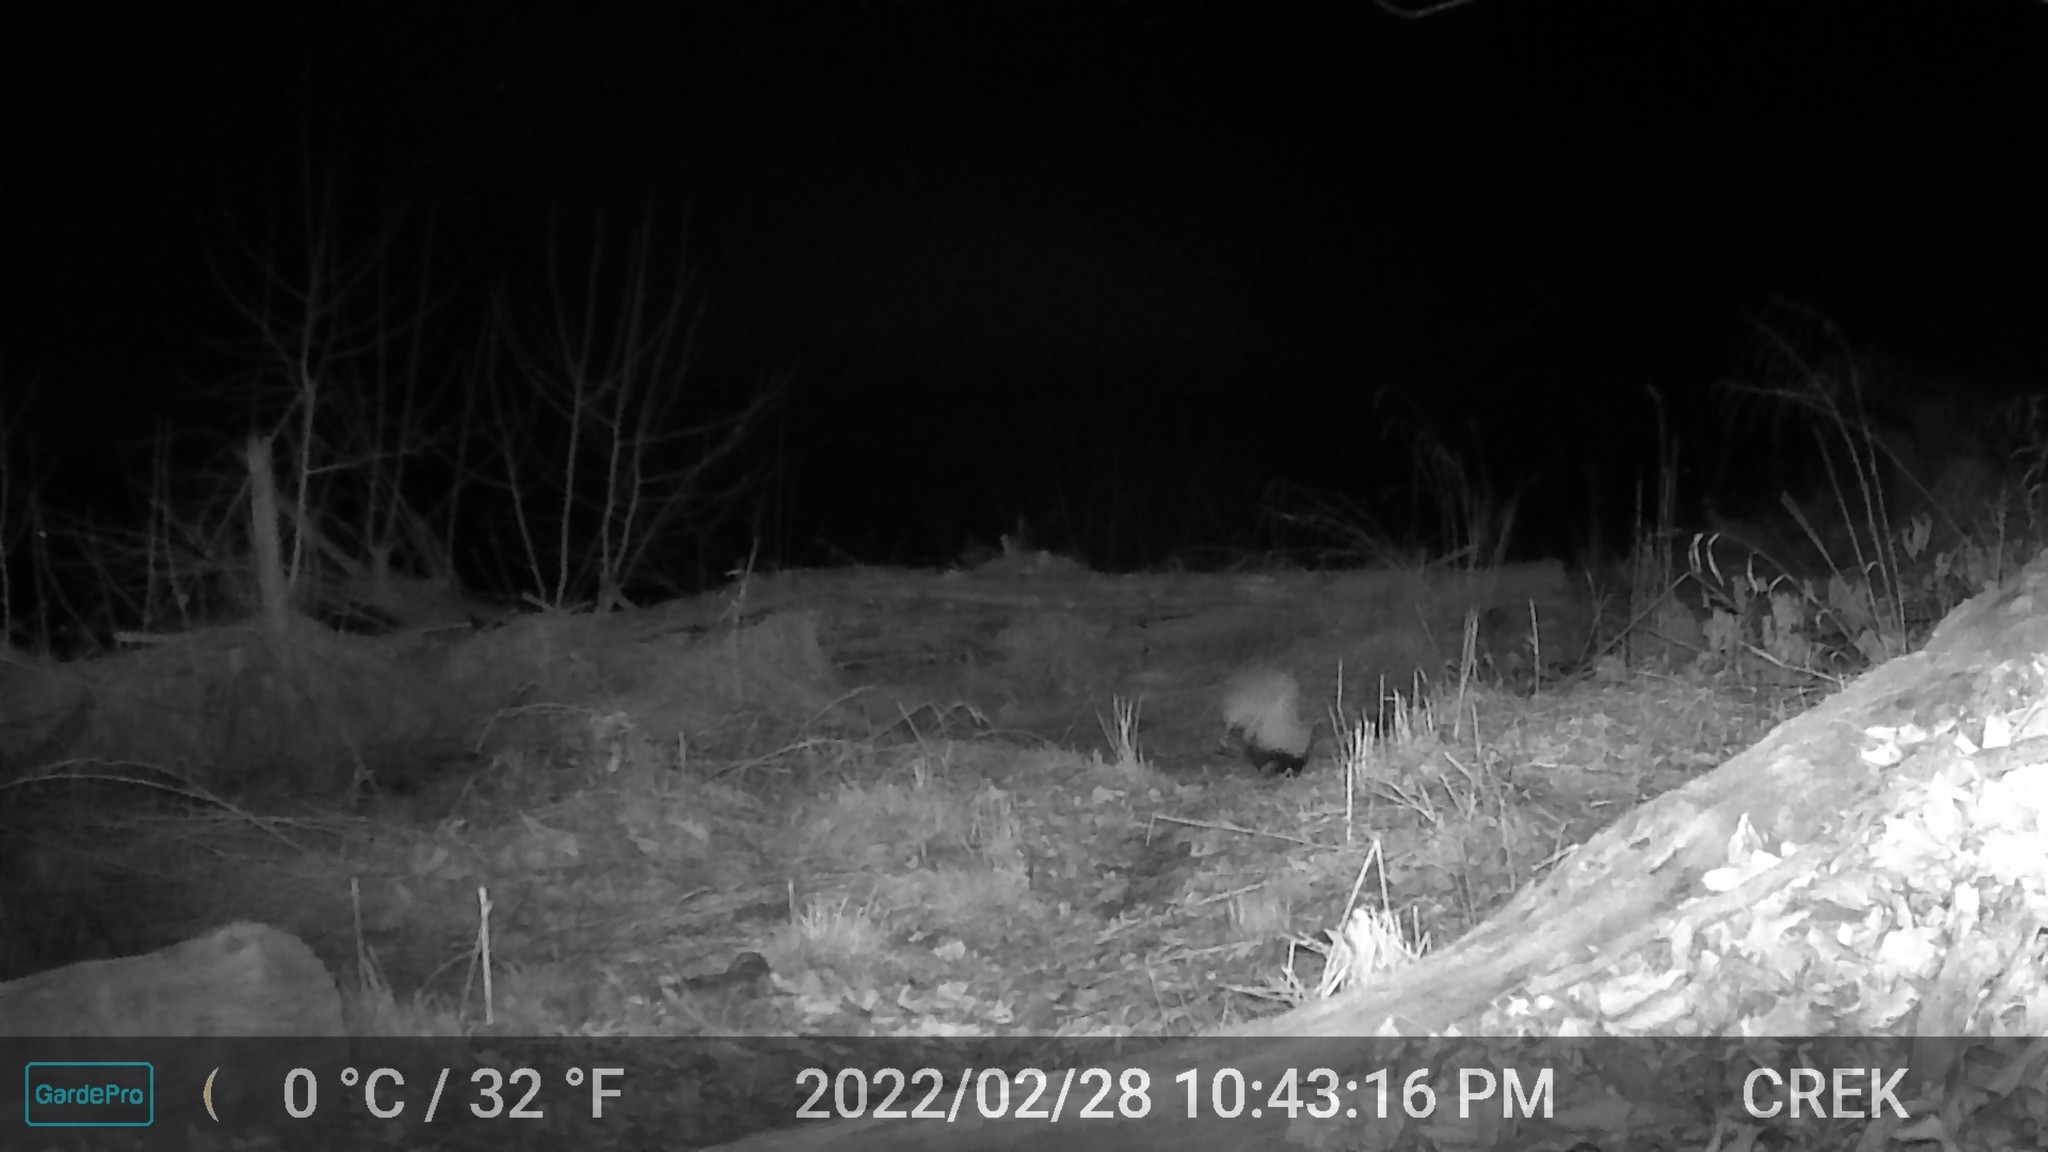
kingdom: Animalia
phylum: Chordata
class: Mammalia
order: Carnivora
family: Mephitidae
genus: Mephitis
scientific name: Mephitis mephitis
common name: Striped skunk
